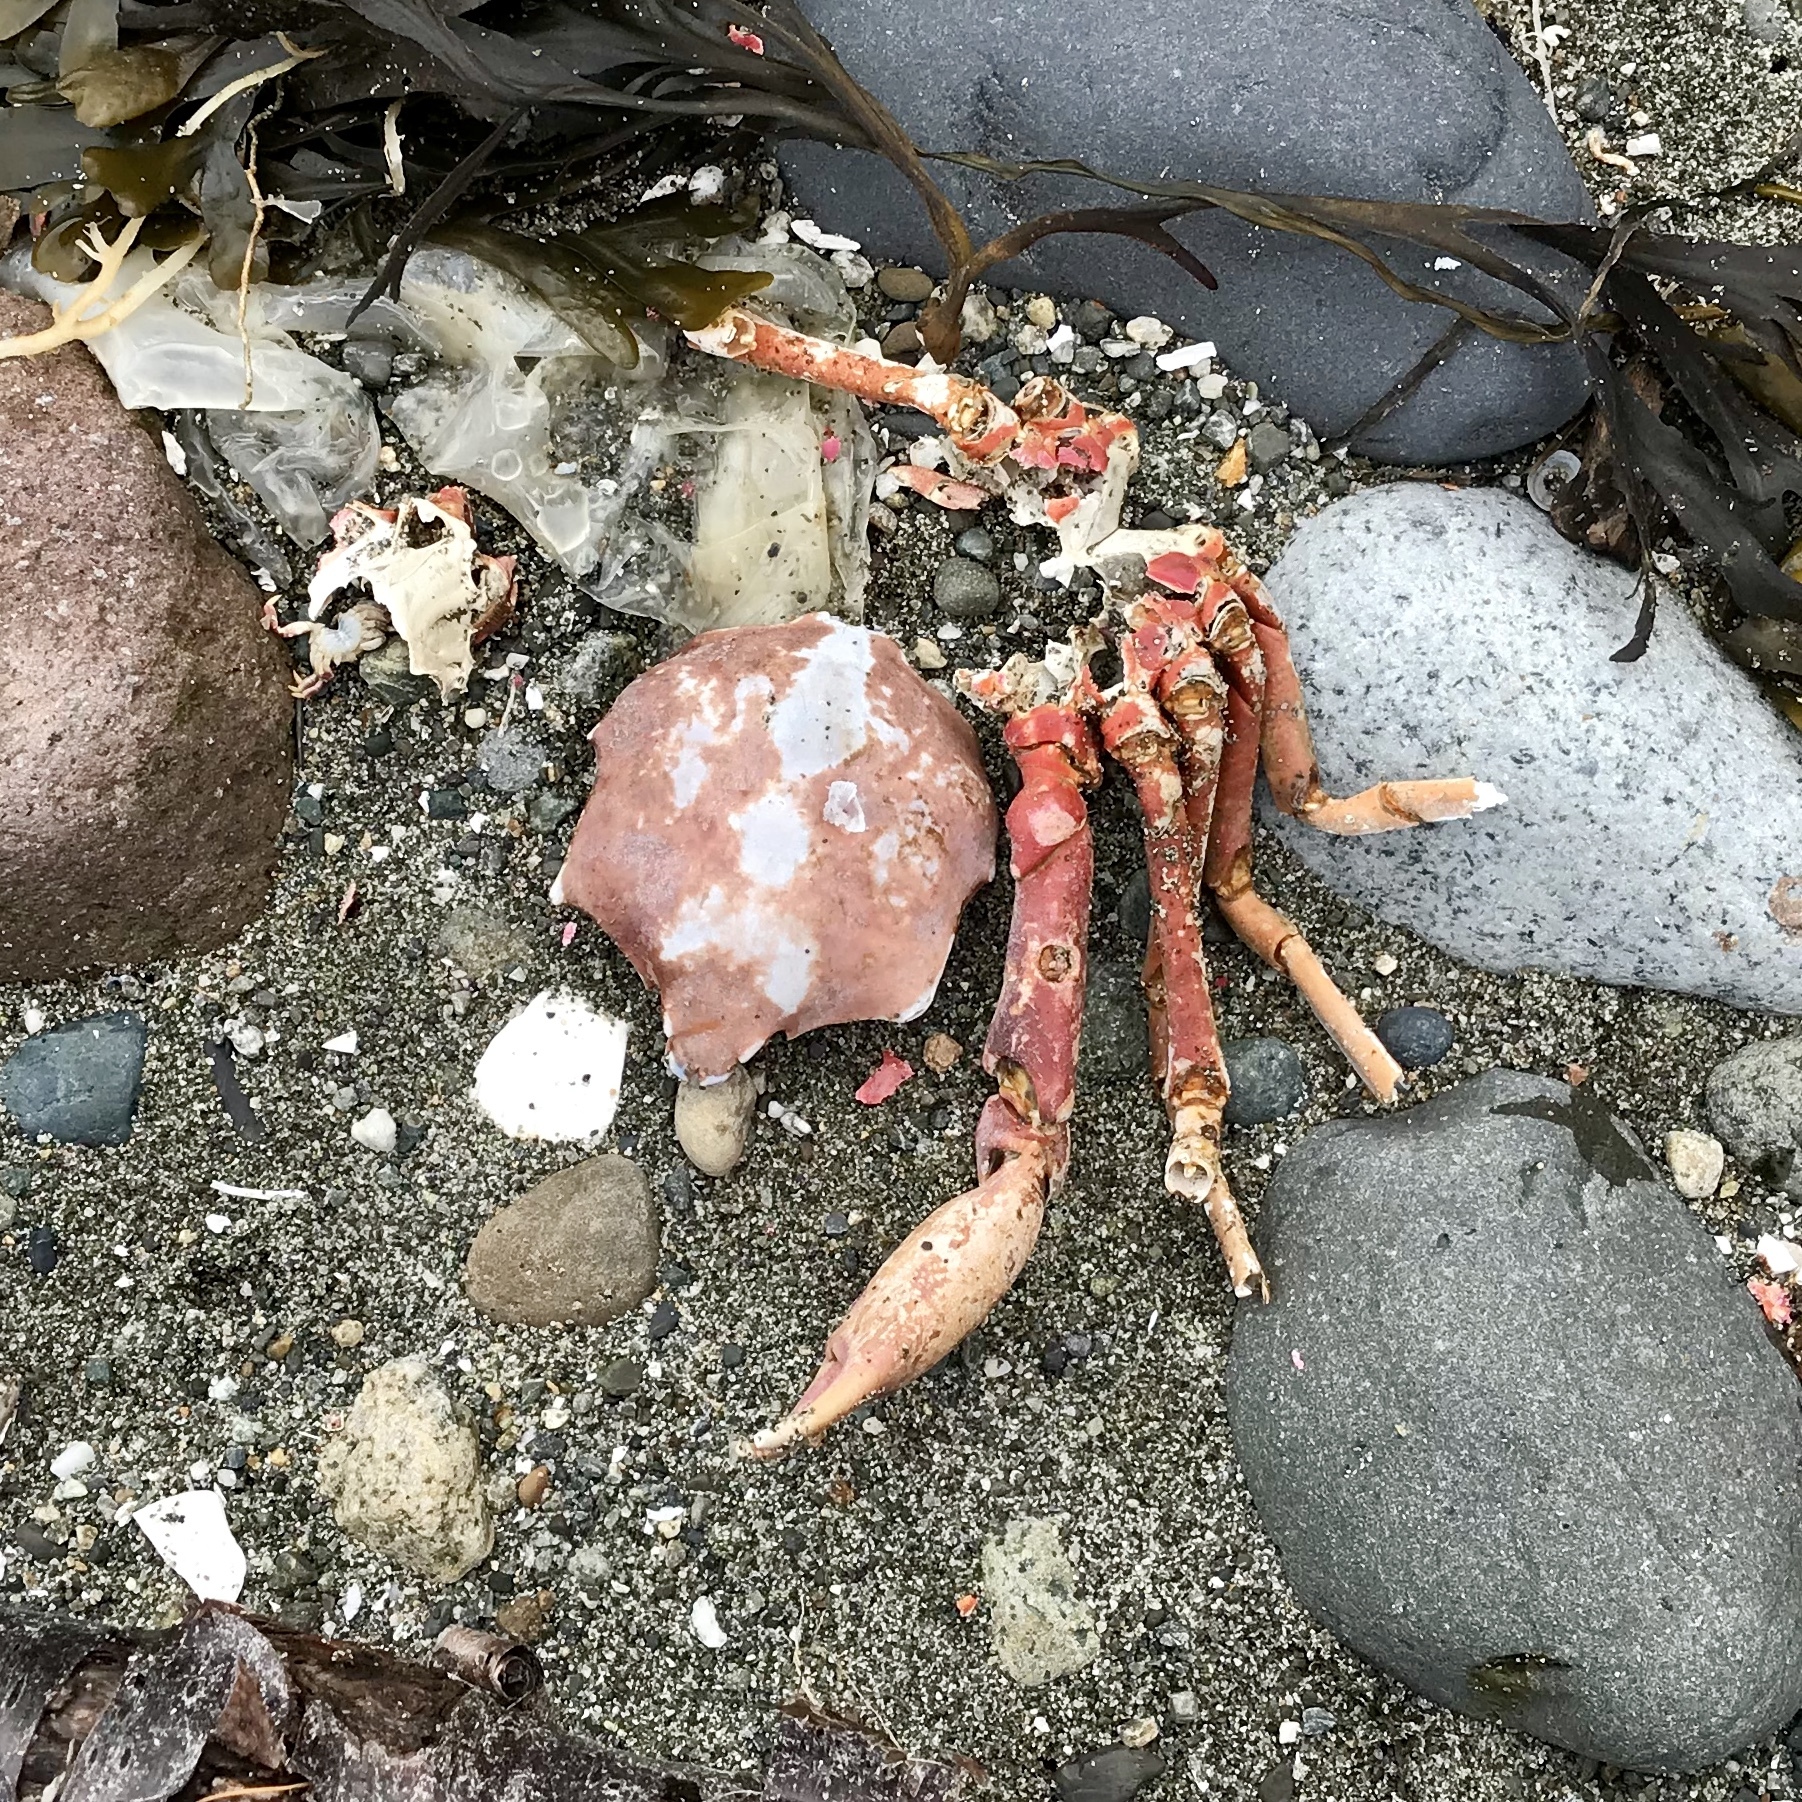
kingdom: Animalia
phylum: Arthropoda
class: Malacostraca
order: Decapoda
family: Epialtidae
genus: Pugettia
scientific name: Pugettia producta
